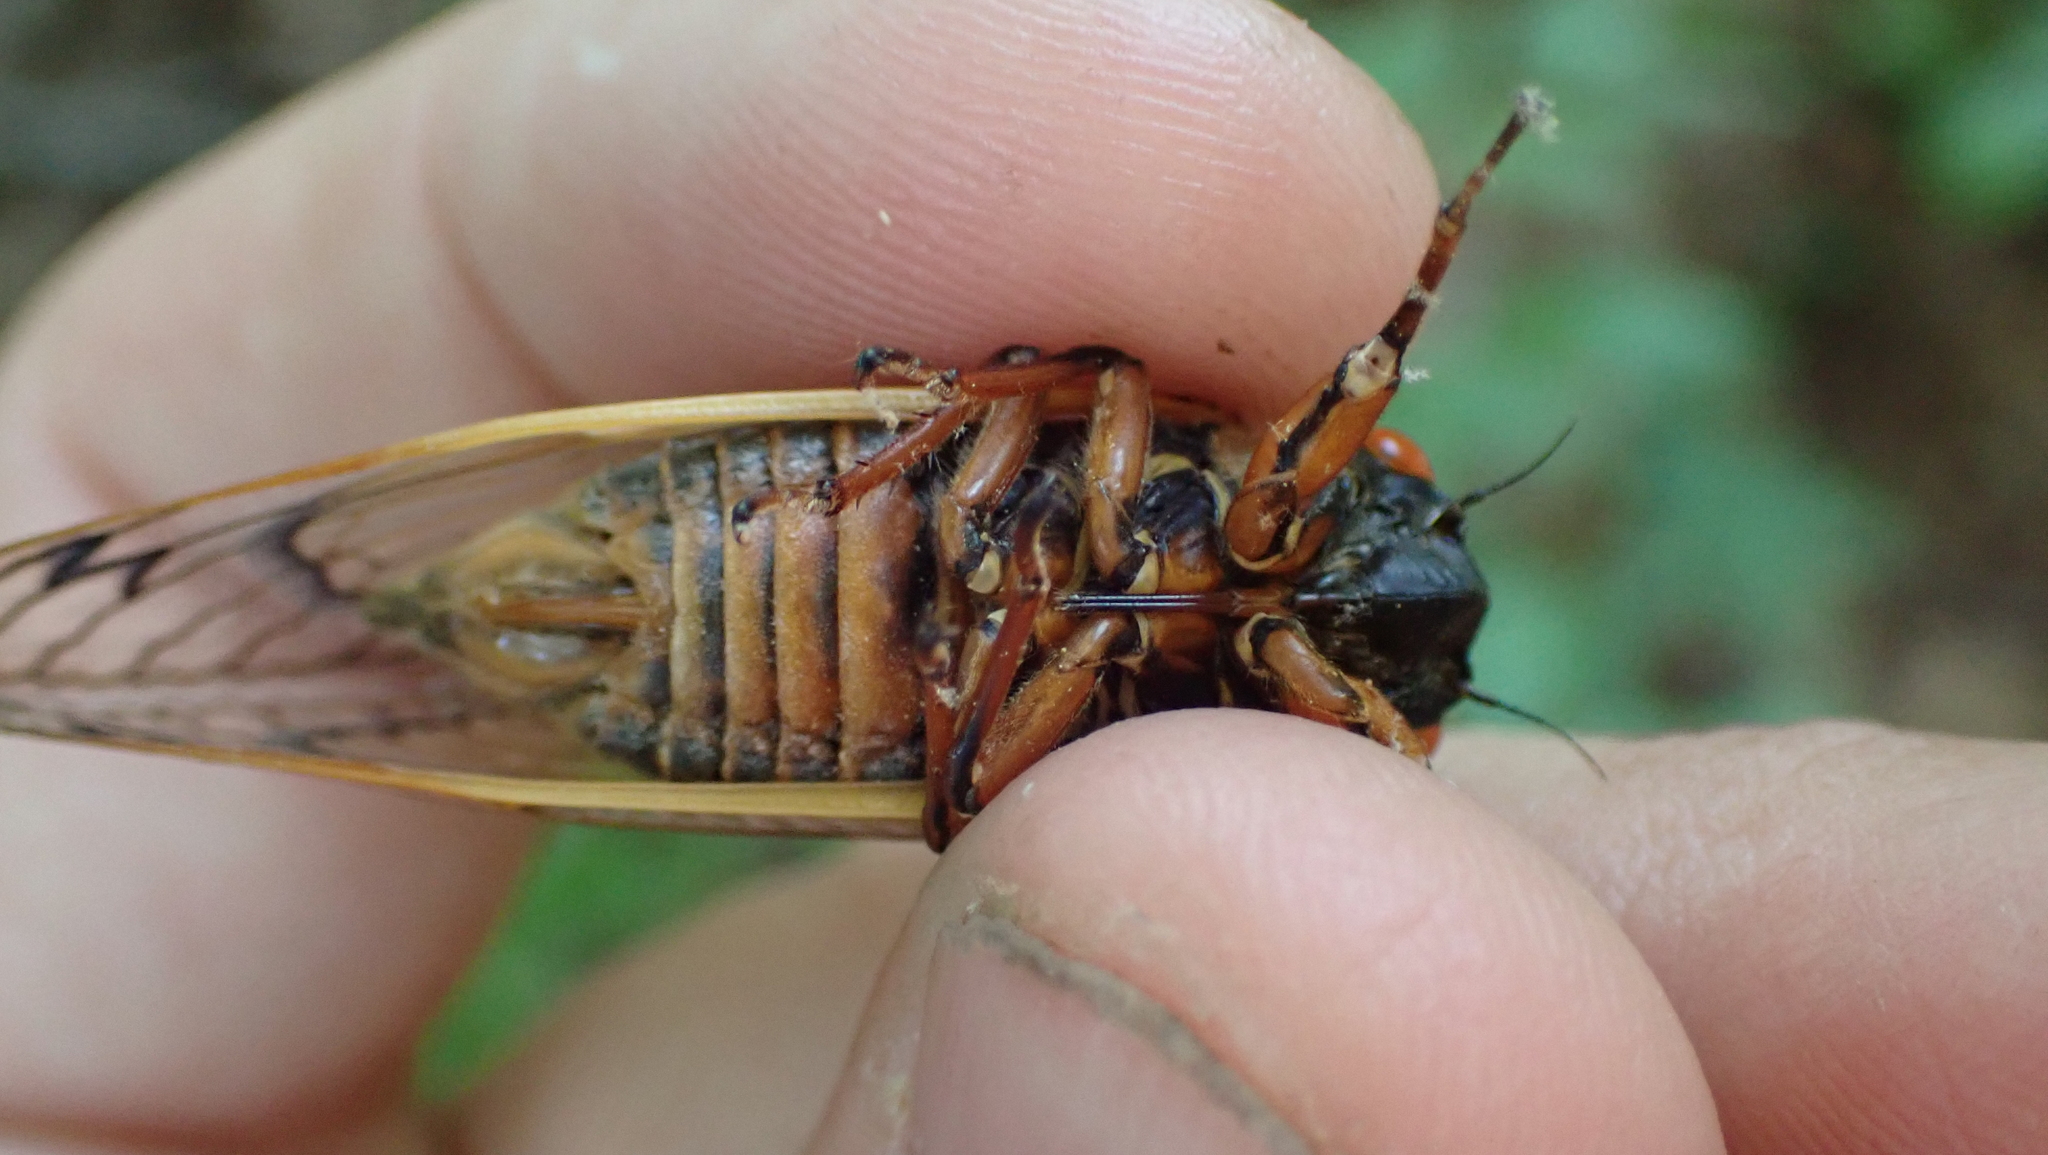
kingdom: Animalia
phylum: Arthropoda
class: Insecta
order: Hemiptera
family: Cicadidae
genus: Magicicada
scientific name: Magicicada septendecim
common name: Periodical cicada
